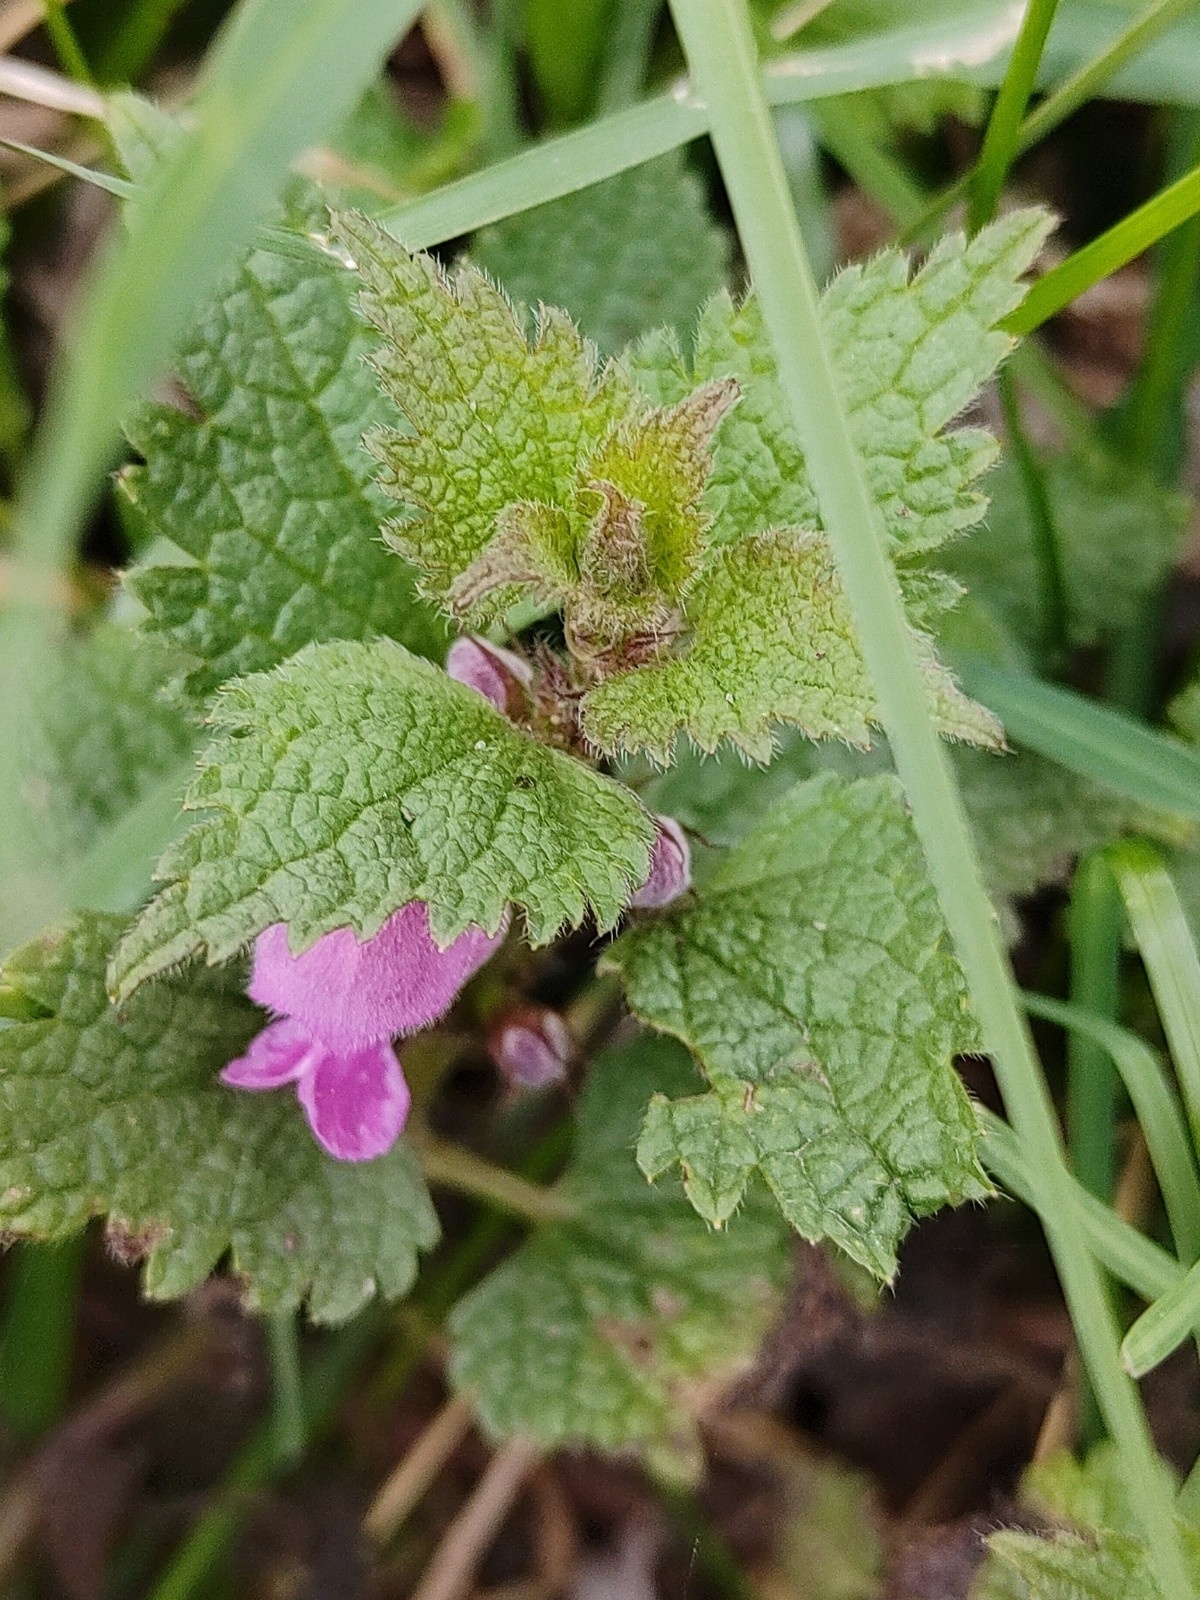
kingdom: Plantae
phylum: Tracheophyta
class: Magnoliopsida
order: Lamiales
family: Lamiaceae
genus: Lamium
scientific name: Lamium maculatum
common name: Spotted dead-nettle
